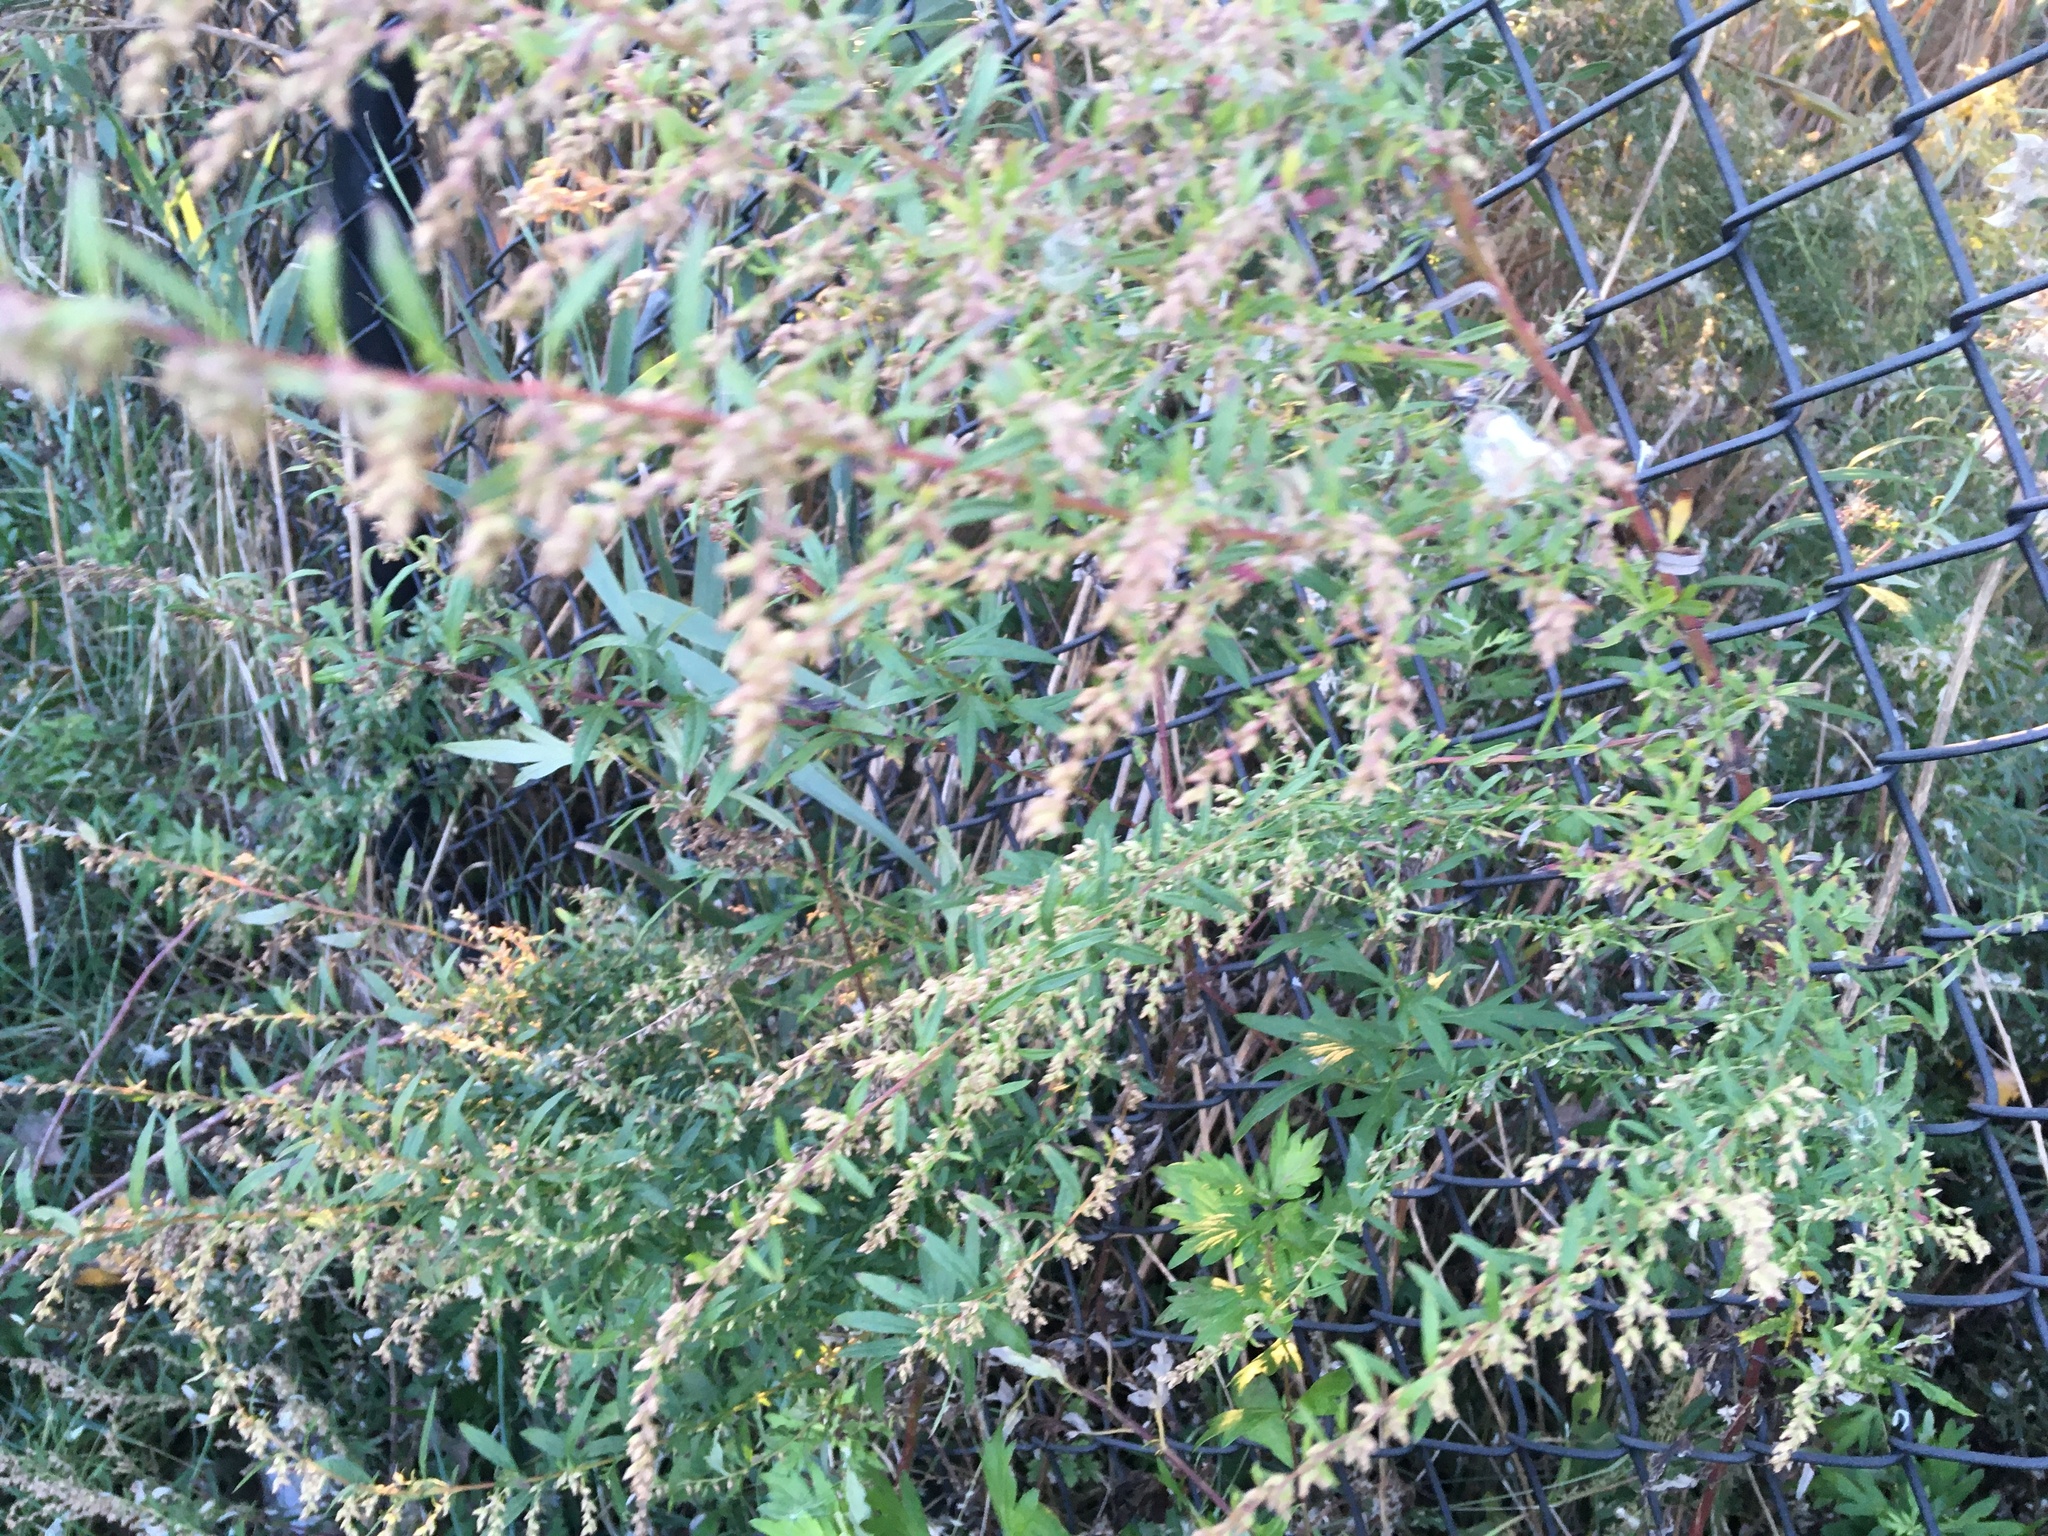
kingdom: Plantae
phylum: Tracheophyta
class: Magnoliopsida
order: Asterales
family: Asteraceae
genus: Artemisia
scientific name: Artemisia vulgaris
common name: Mugwort
